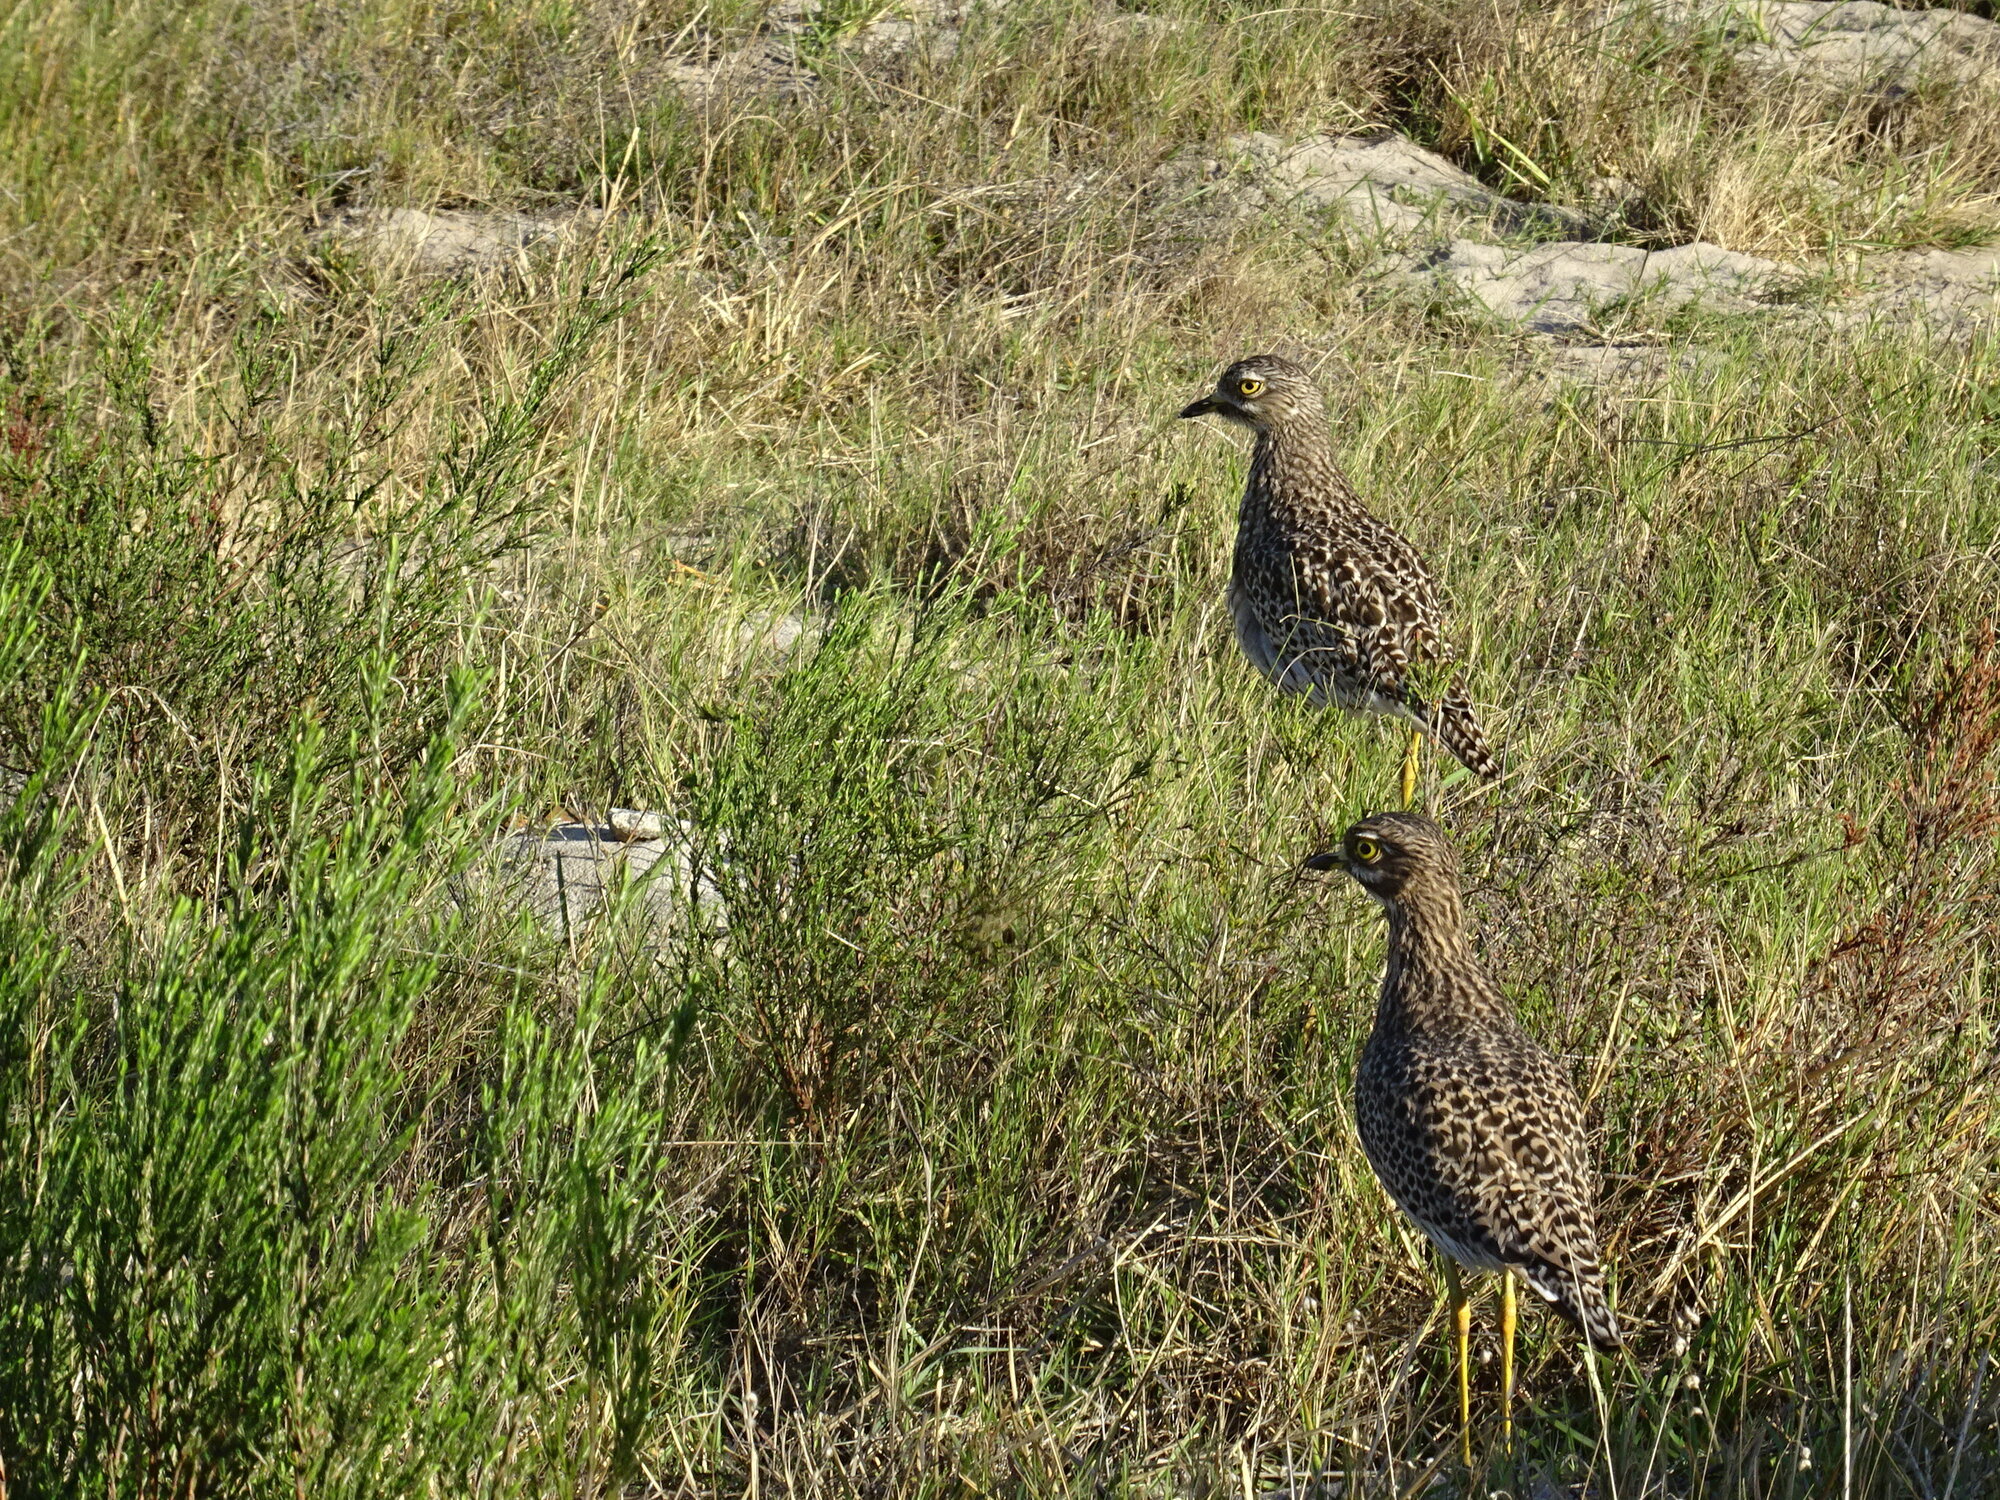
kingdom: Animalia
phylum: Chordata
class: Aves
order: Charadriiformes
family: Burhinidae
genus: Burhinus
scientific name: Burhinus capensis
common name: Spotted thick-knee
